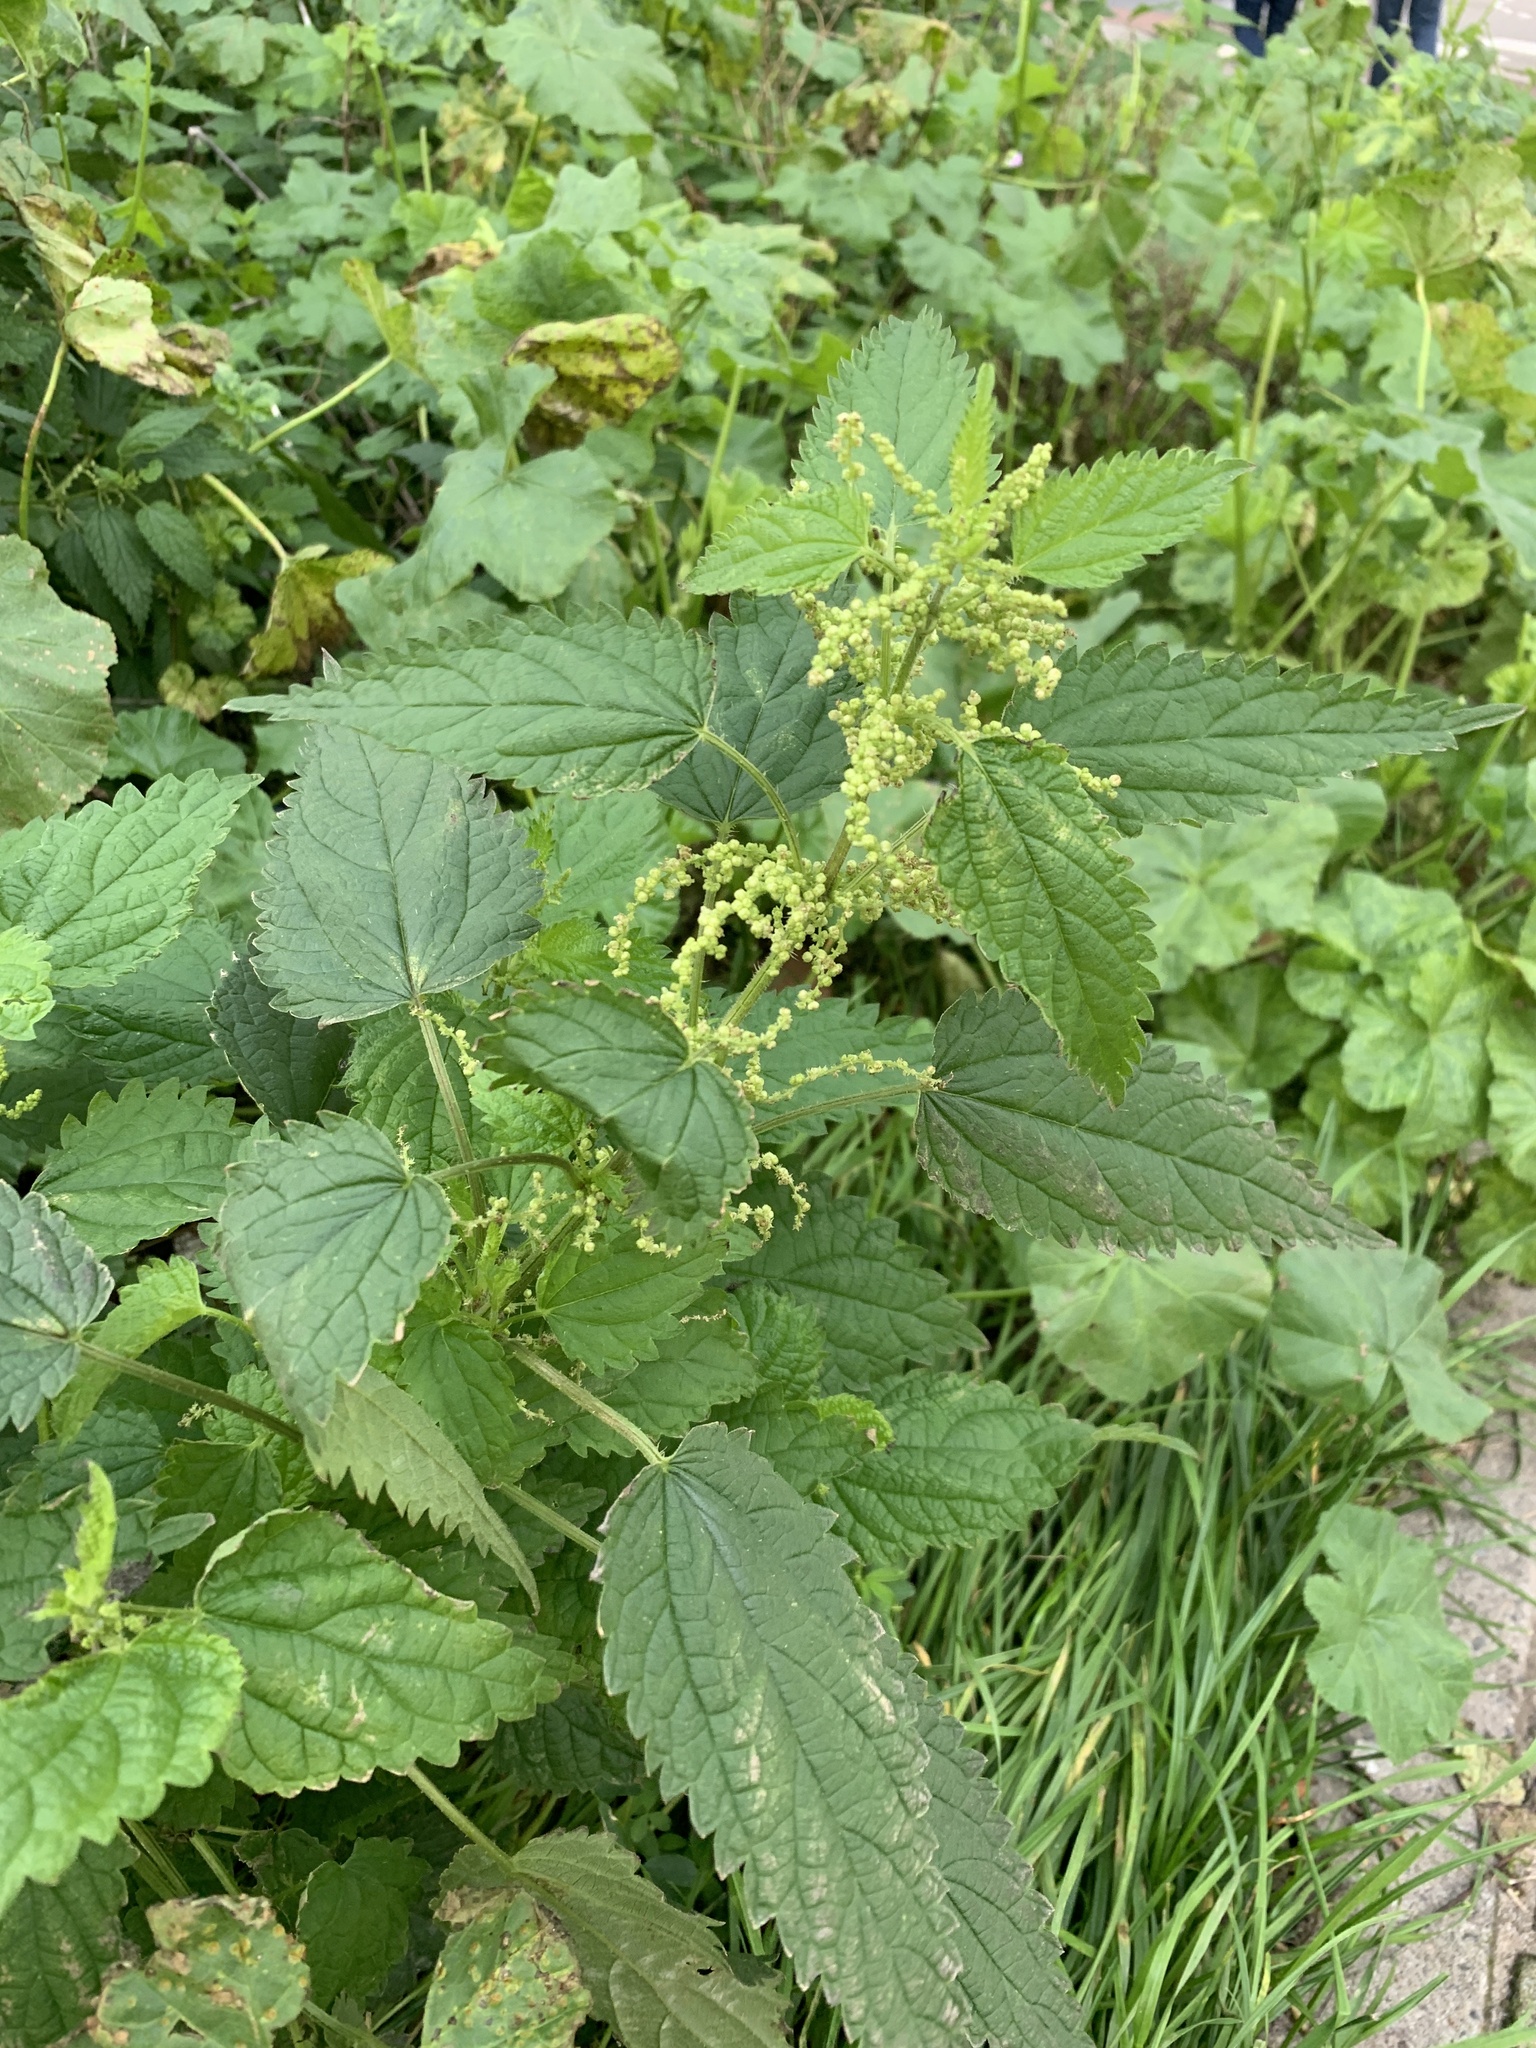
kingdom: Plantae
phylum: Tracheophyta
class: Magnoliopsida
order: Rosales
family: Urticaceae
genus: Urtica
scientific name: Urtica dioica
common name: Common nettle
